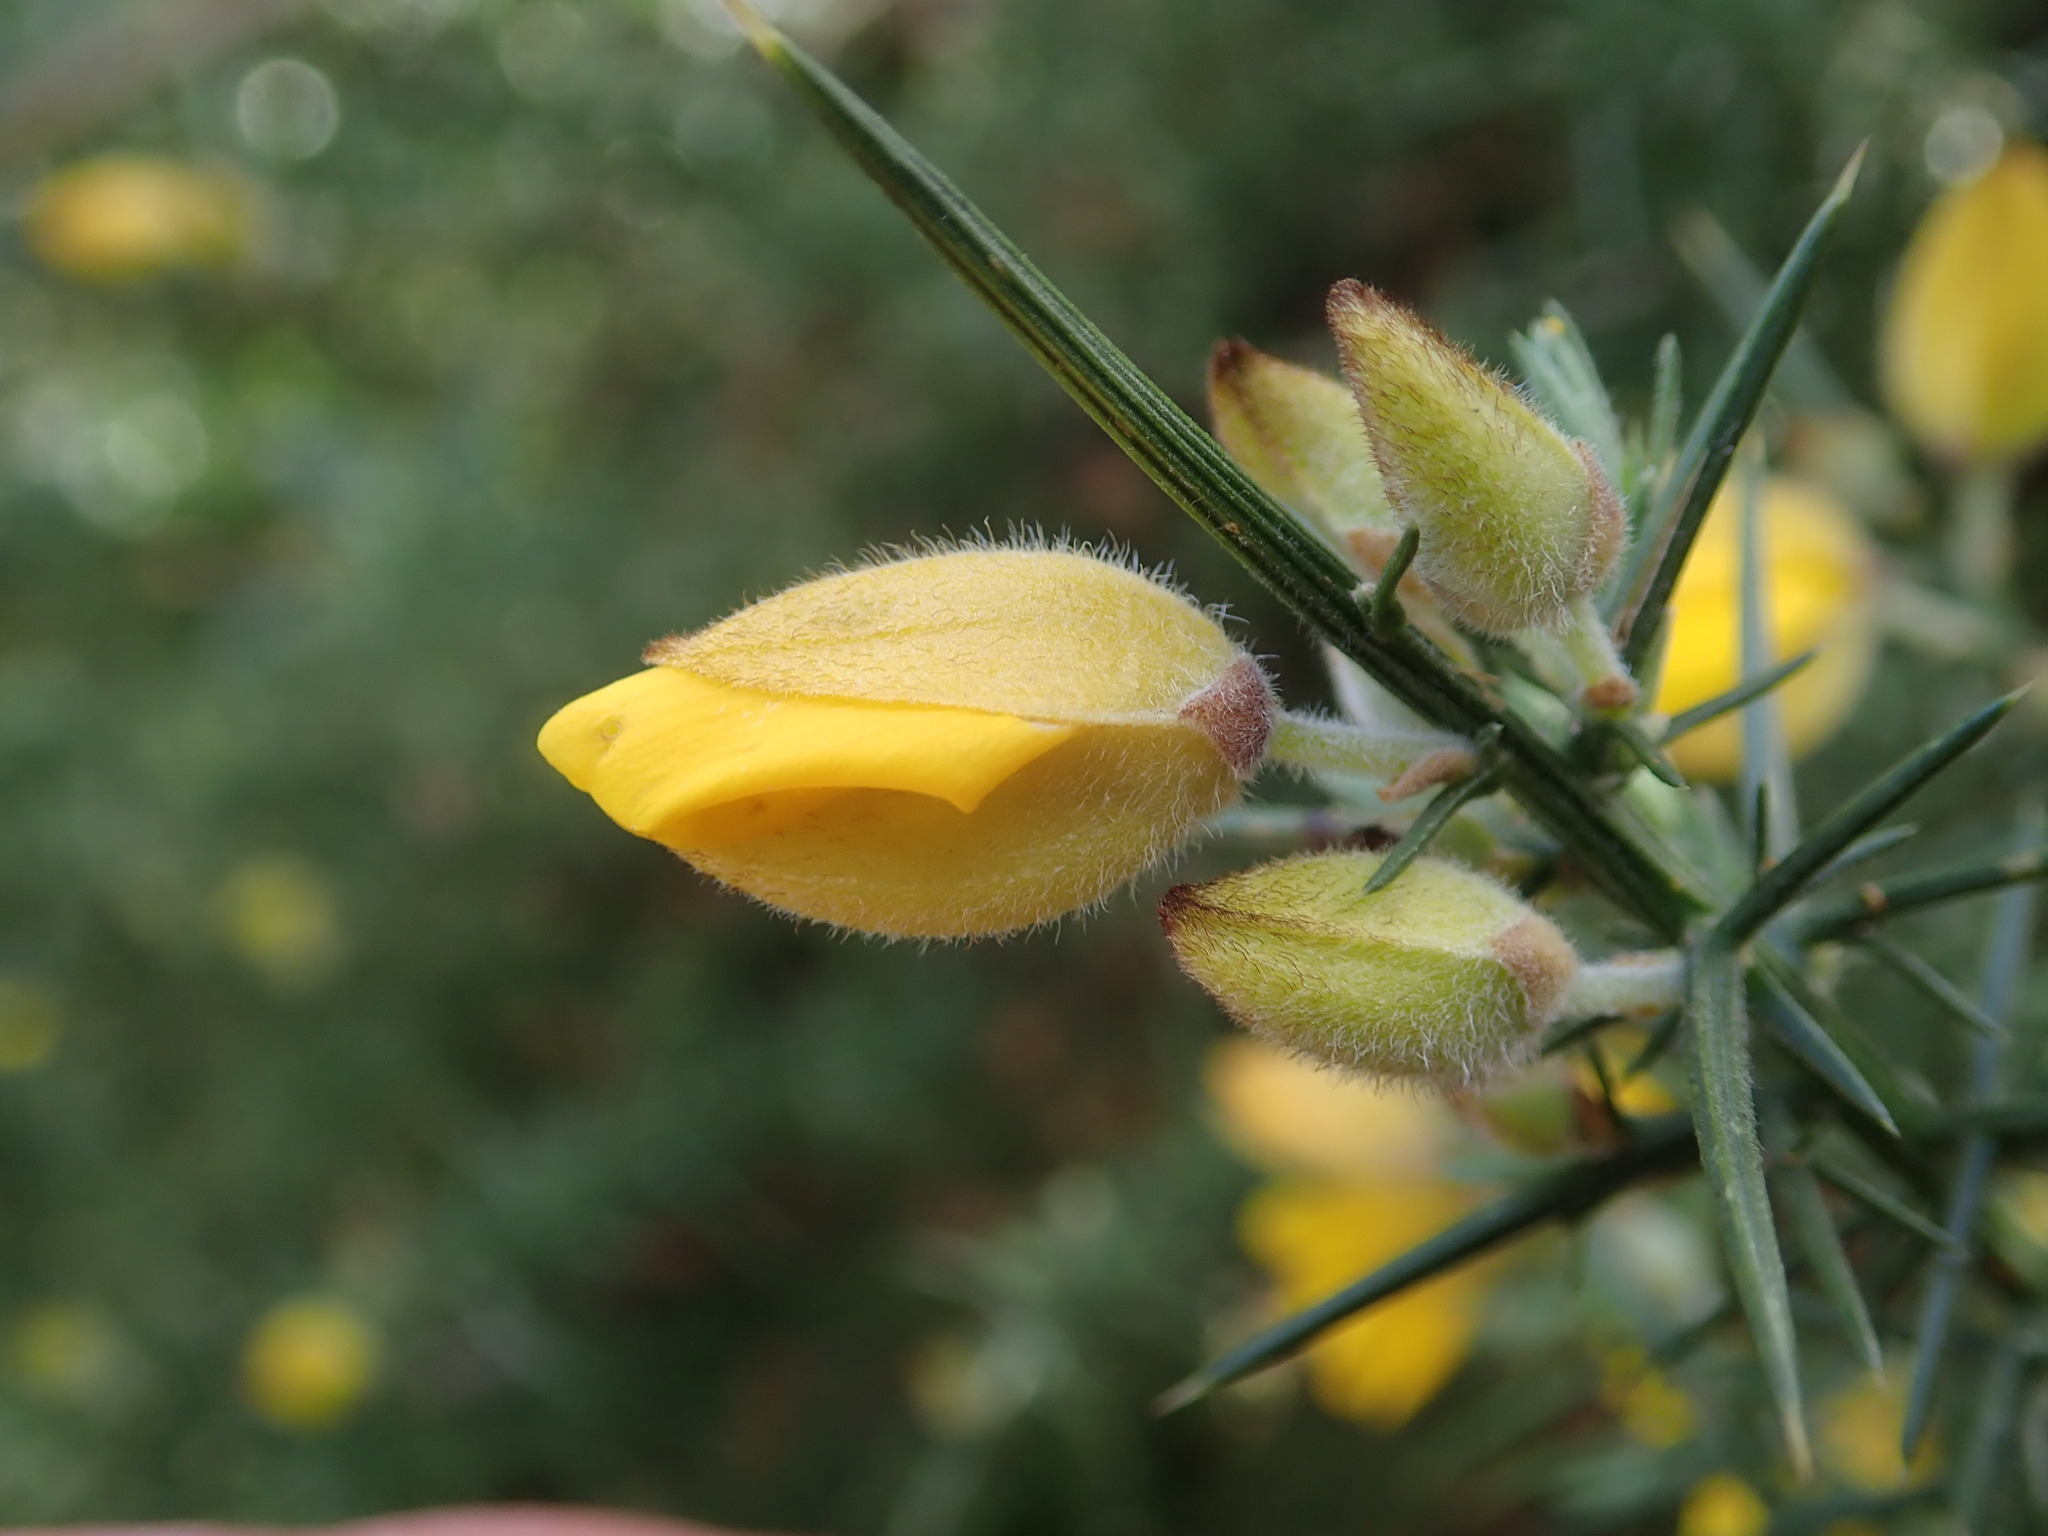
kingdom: Plantae
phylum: Tracheophyta
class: Magnoliopsida
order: Fabales
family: Fabaceae
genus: Ulex
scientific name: Ulex europaeus
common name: Common gorse
